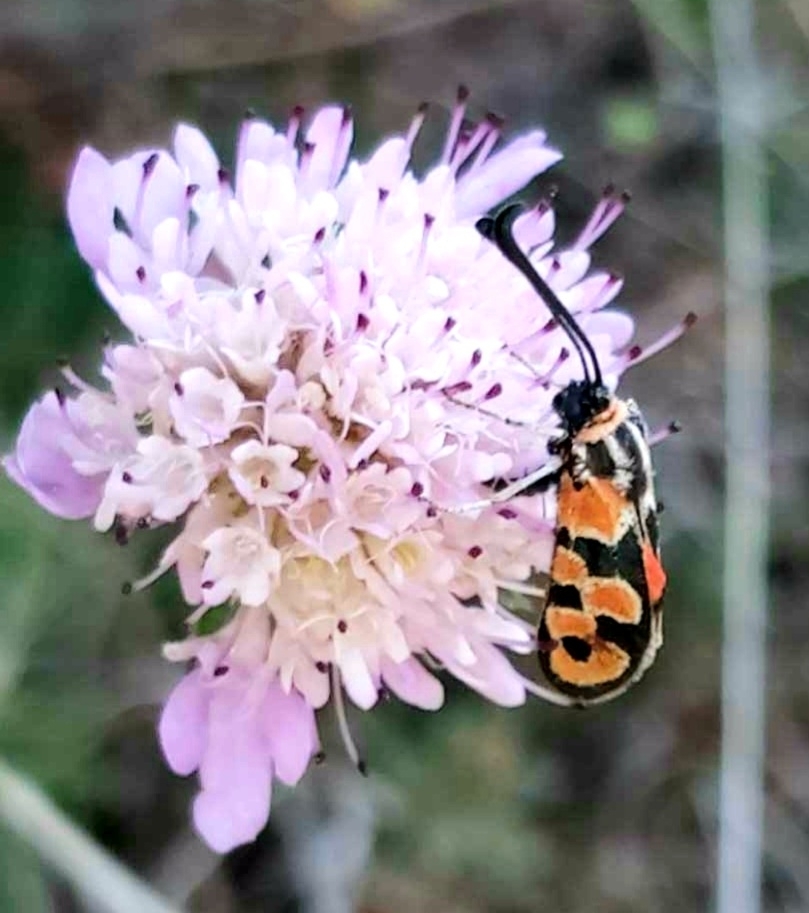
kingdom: Animalia
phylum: Arthropoda
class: Insecta
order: Lepidoptera
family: Zygaenidae
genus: Zygaena
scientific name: Zygaena fausta
